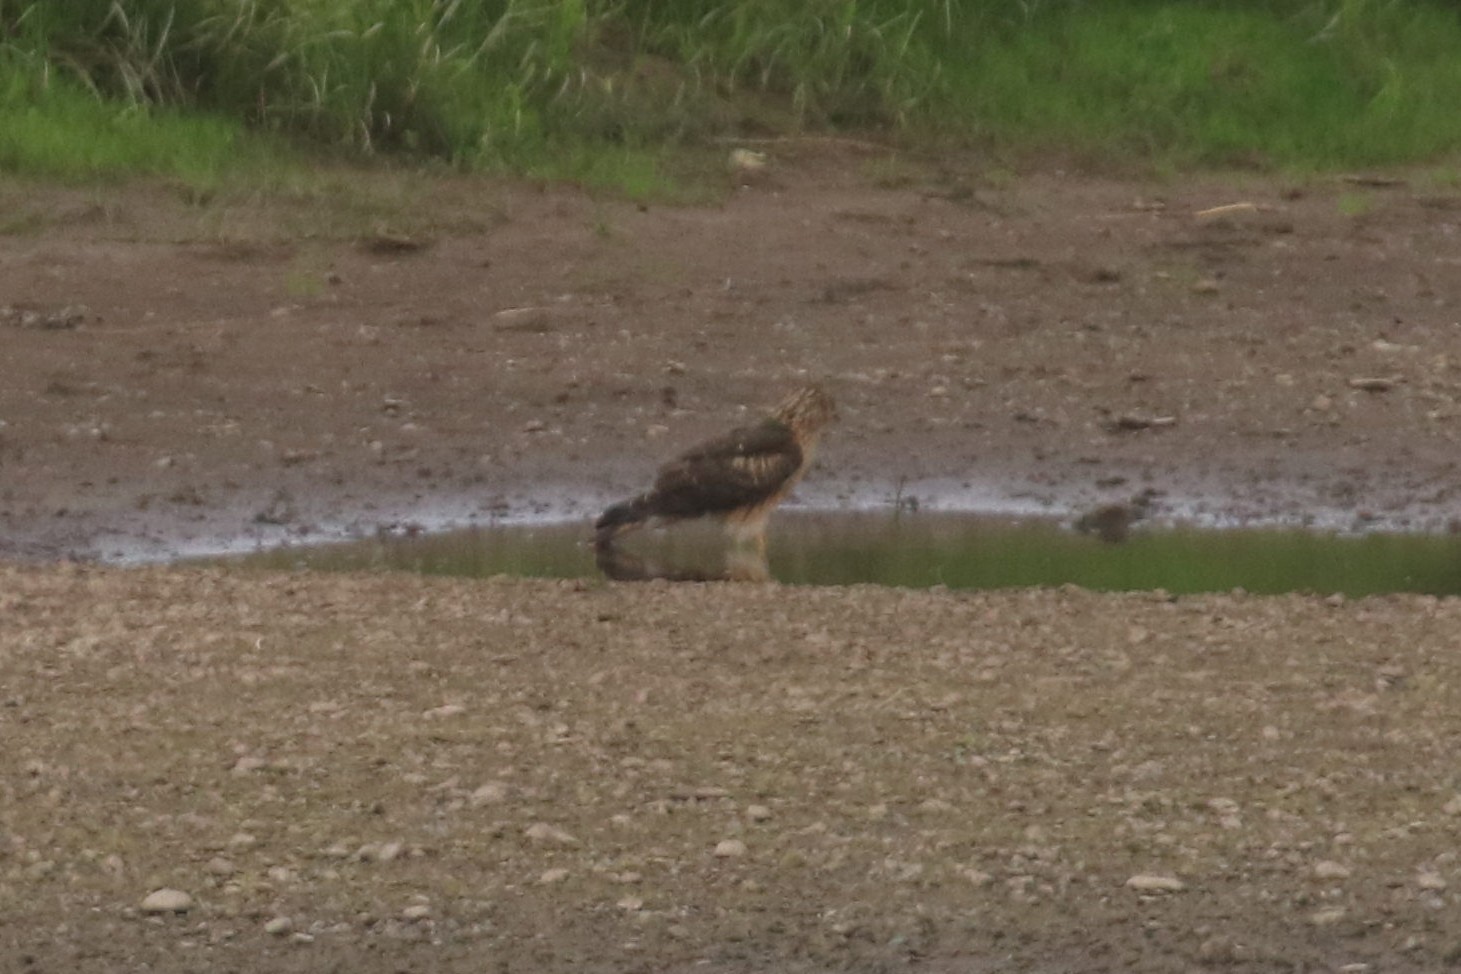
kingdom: Animalia
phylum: Chordata
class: Aves
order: Accipitriformes
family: Accipitridae
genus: Circus
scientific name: Circus cyaneus
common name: Hen harrier
